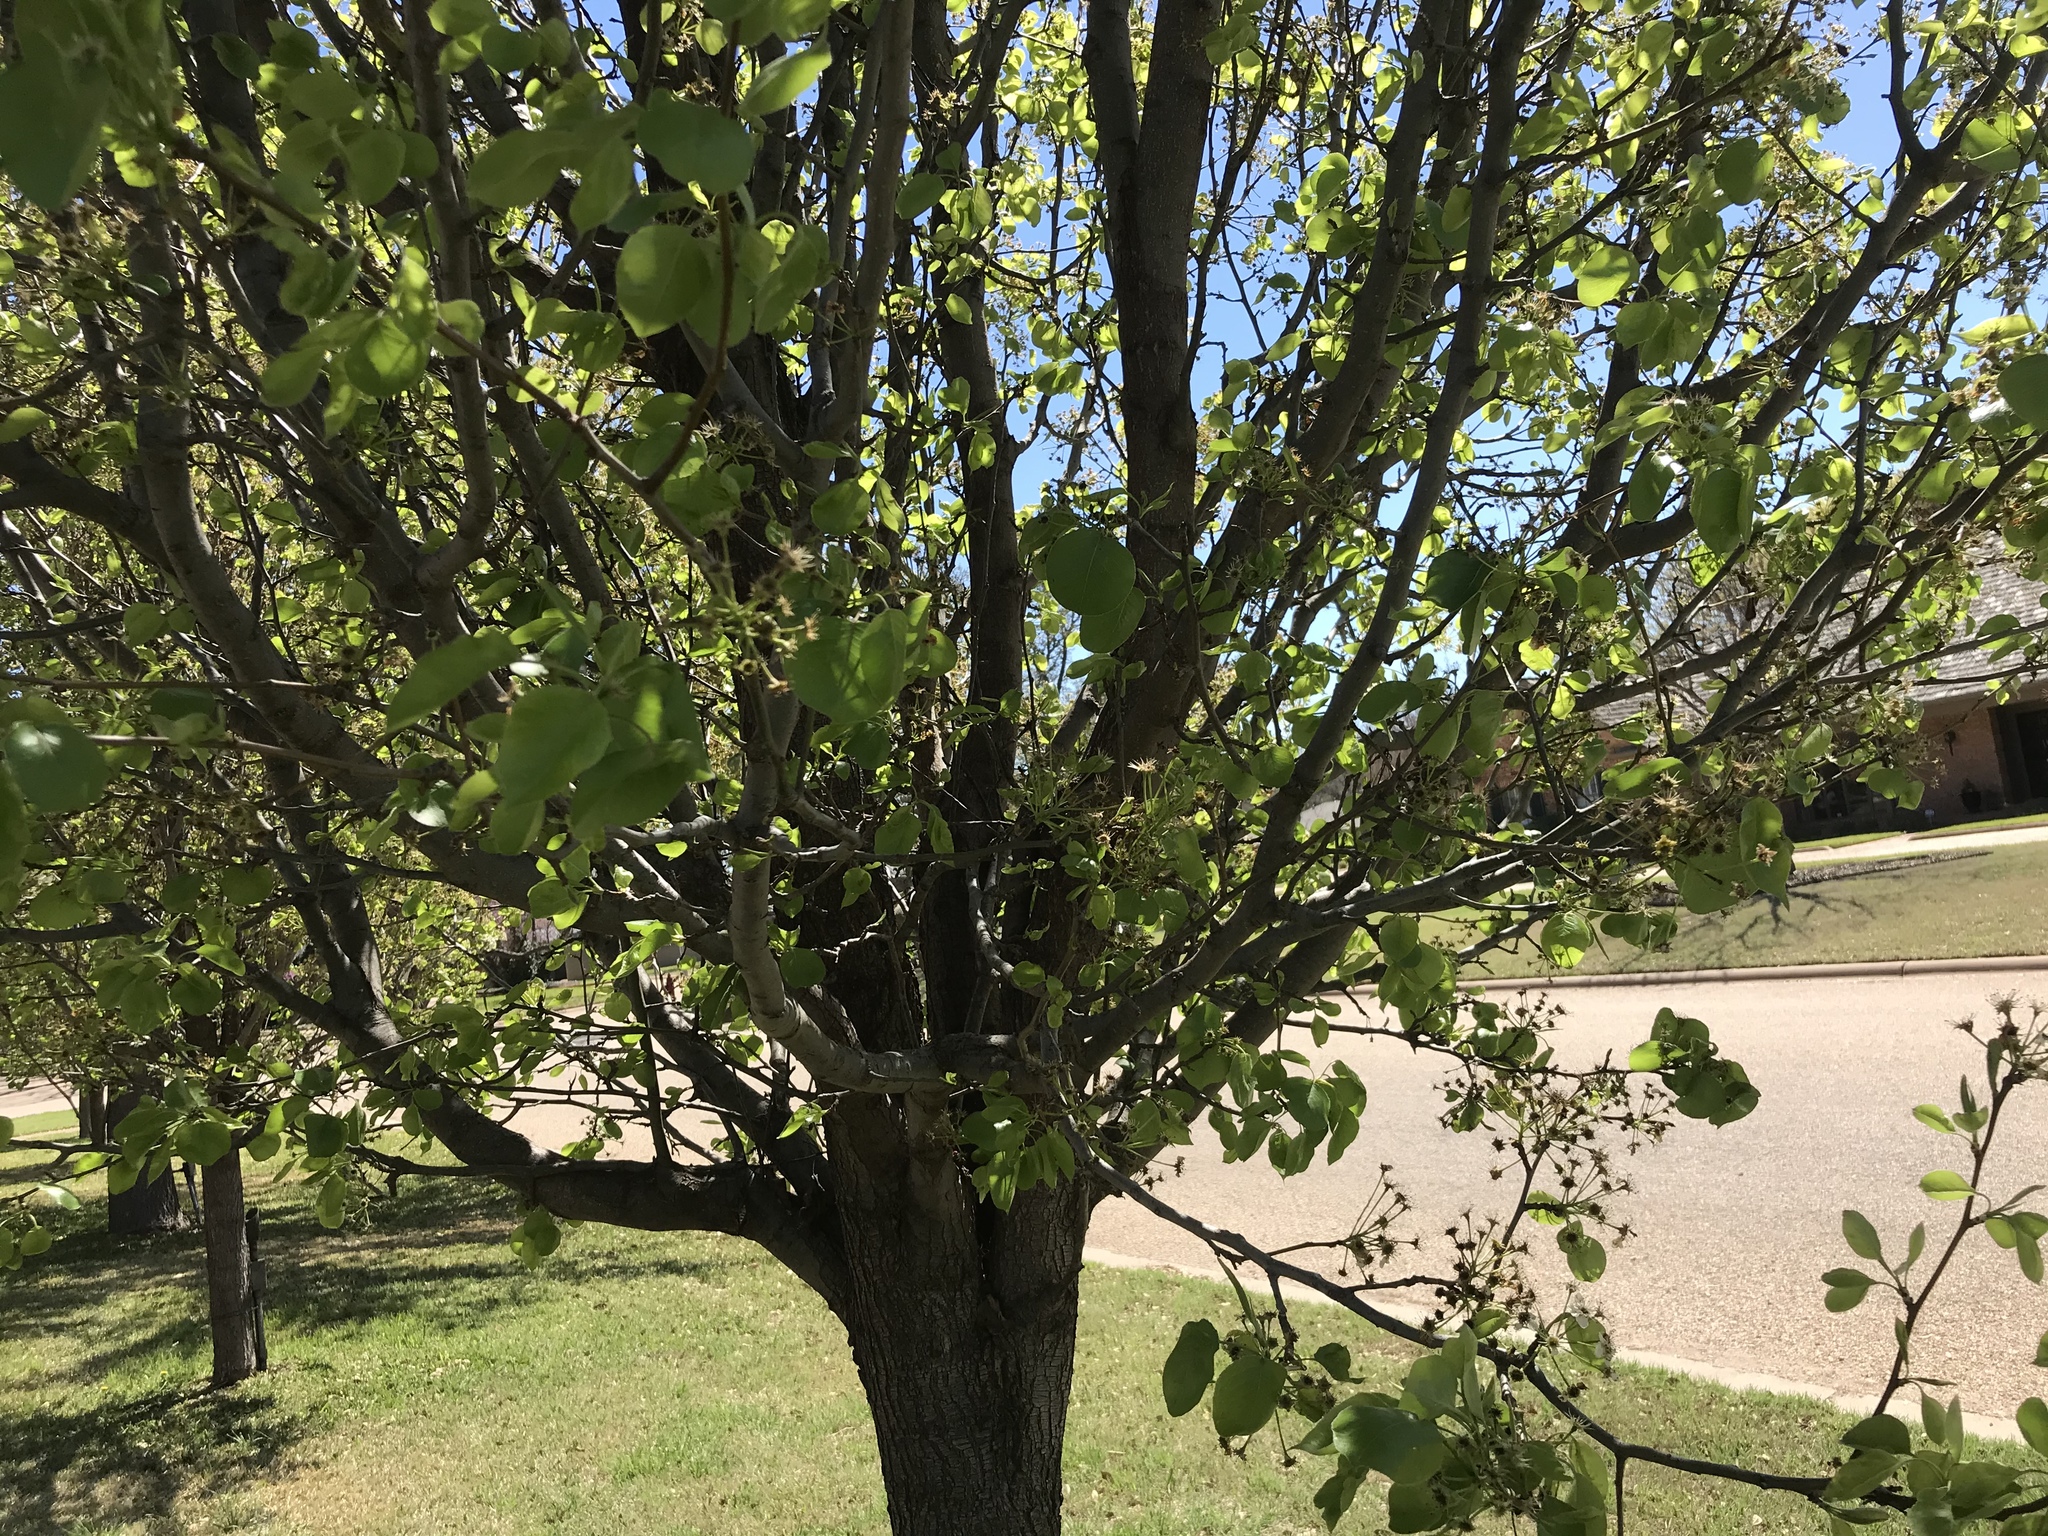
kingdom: Plantae
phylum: Tracheophyta
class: Magnoliopsida
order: Rosales
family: Rosaceae
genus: Pyrus
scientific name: Pyrus calleryana
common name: Callery pear
